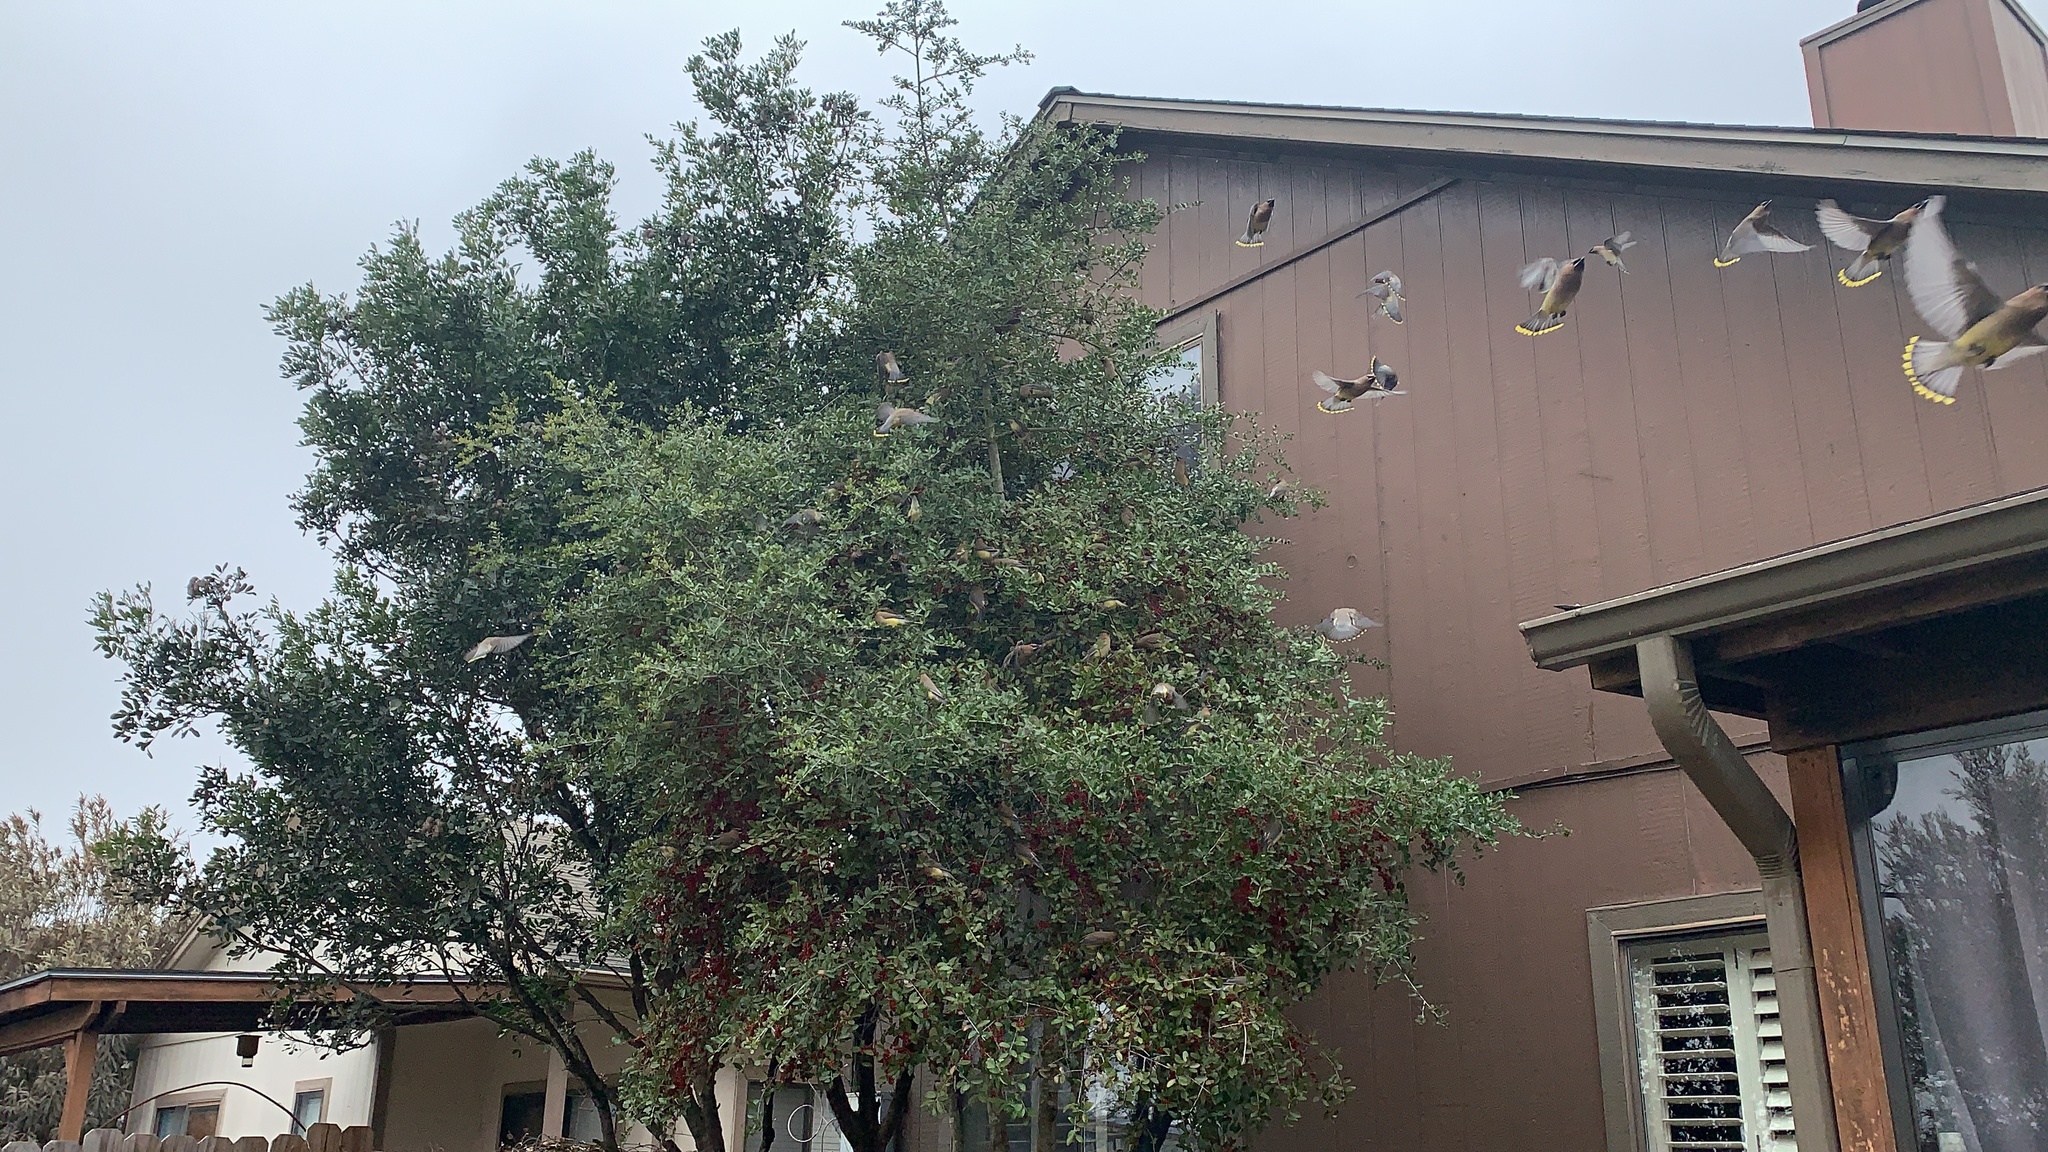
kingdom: Animalia
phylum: Chordata
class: Aves
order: Passeriformes
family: Bombycillidae
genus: Bombycilla
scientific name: Bombycilla cedrorum
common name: Cedar waxwing
